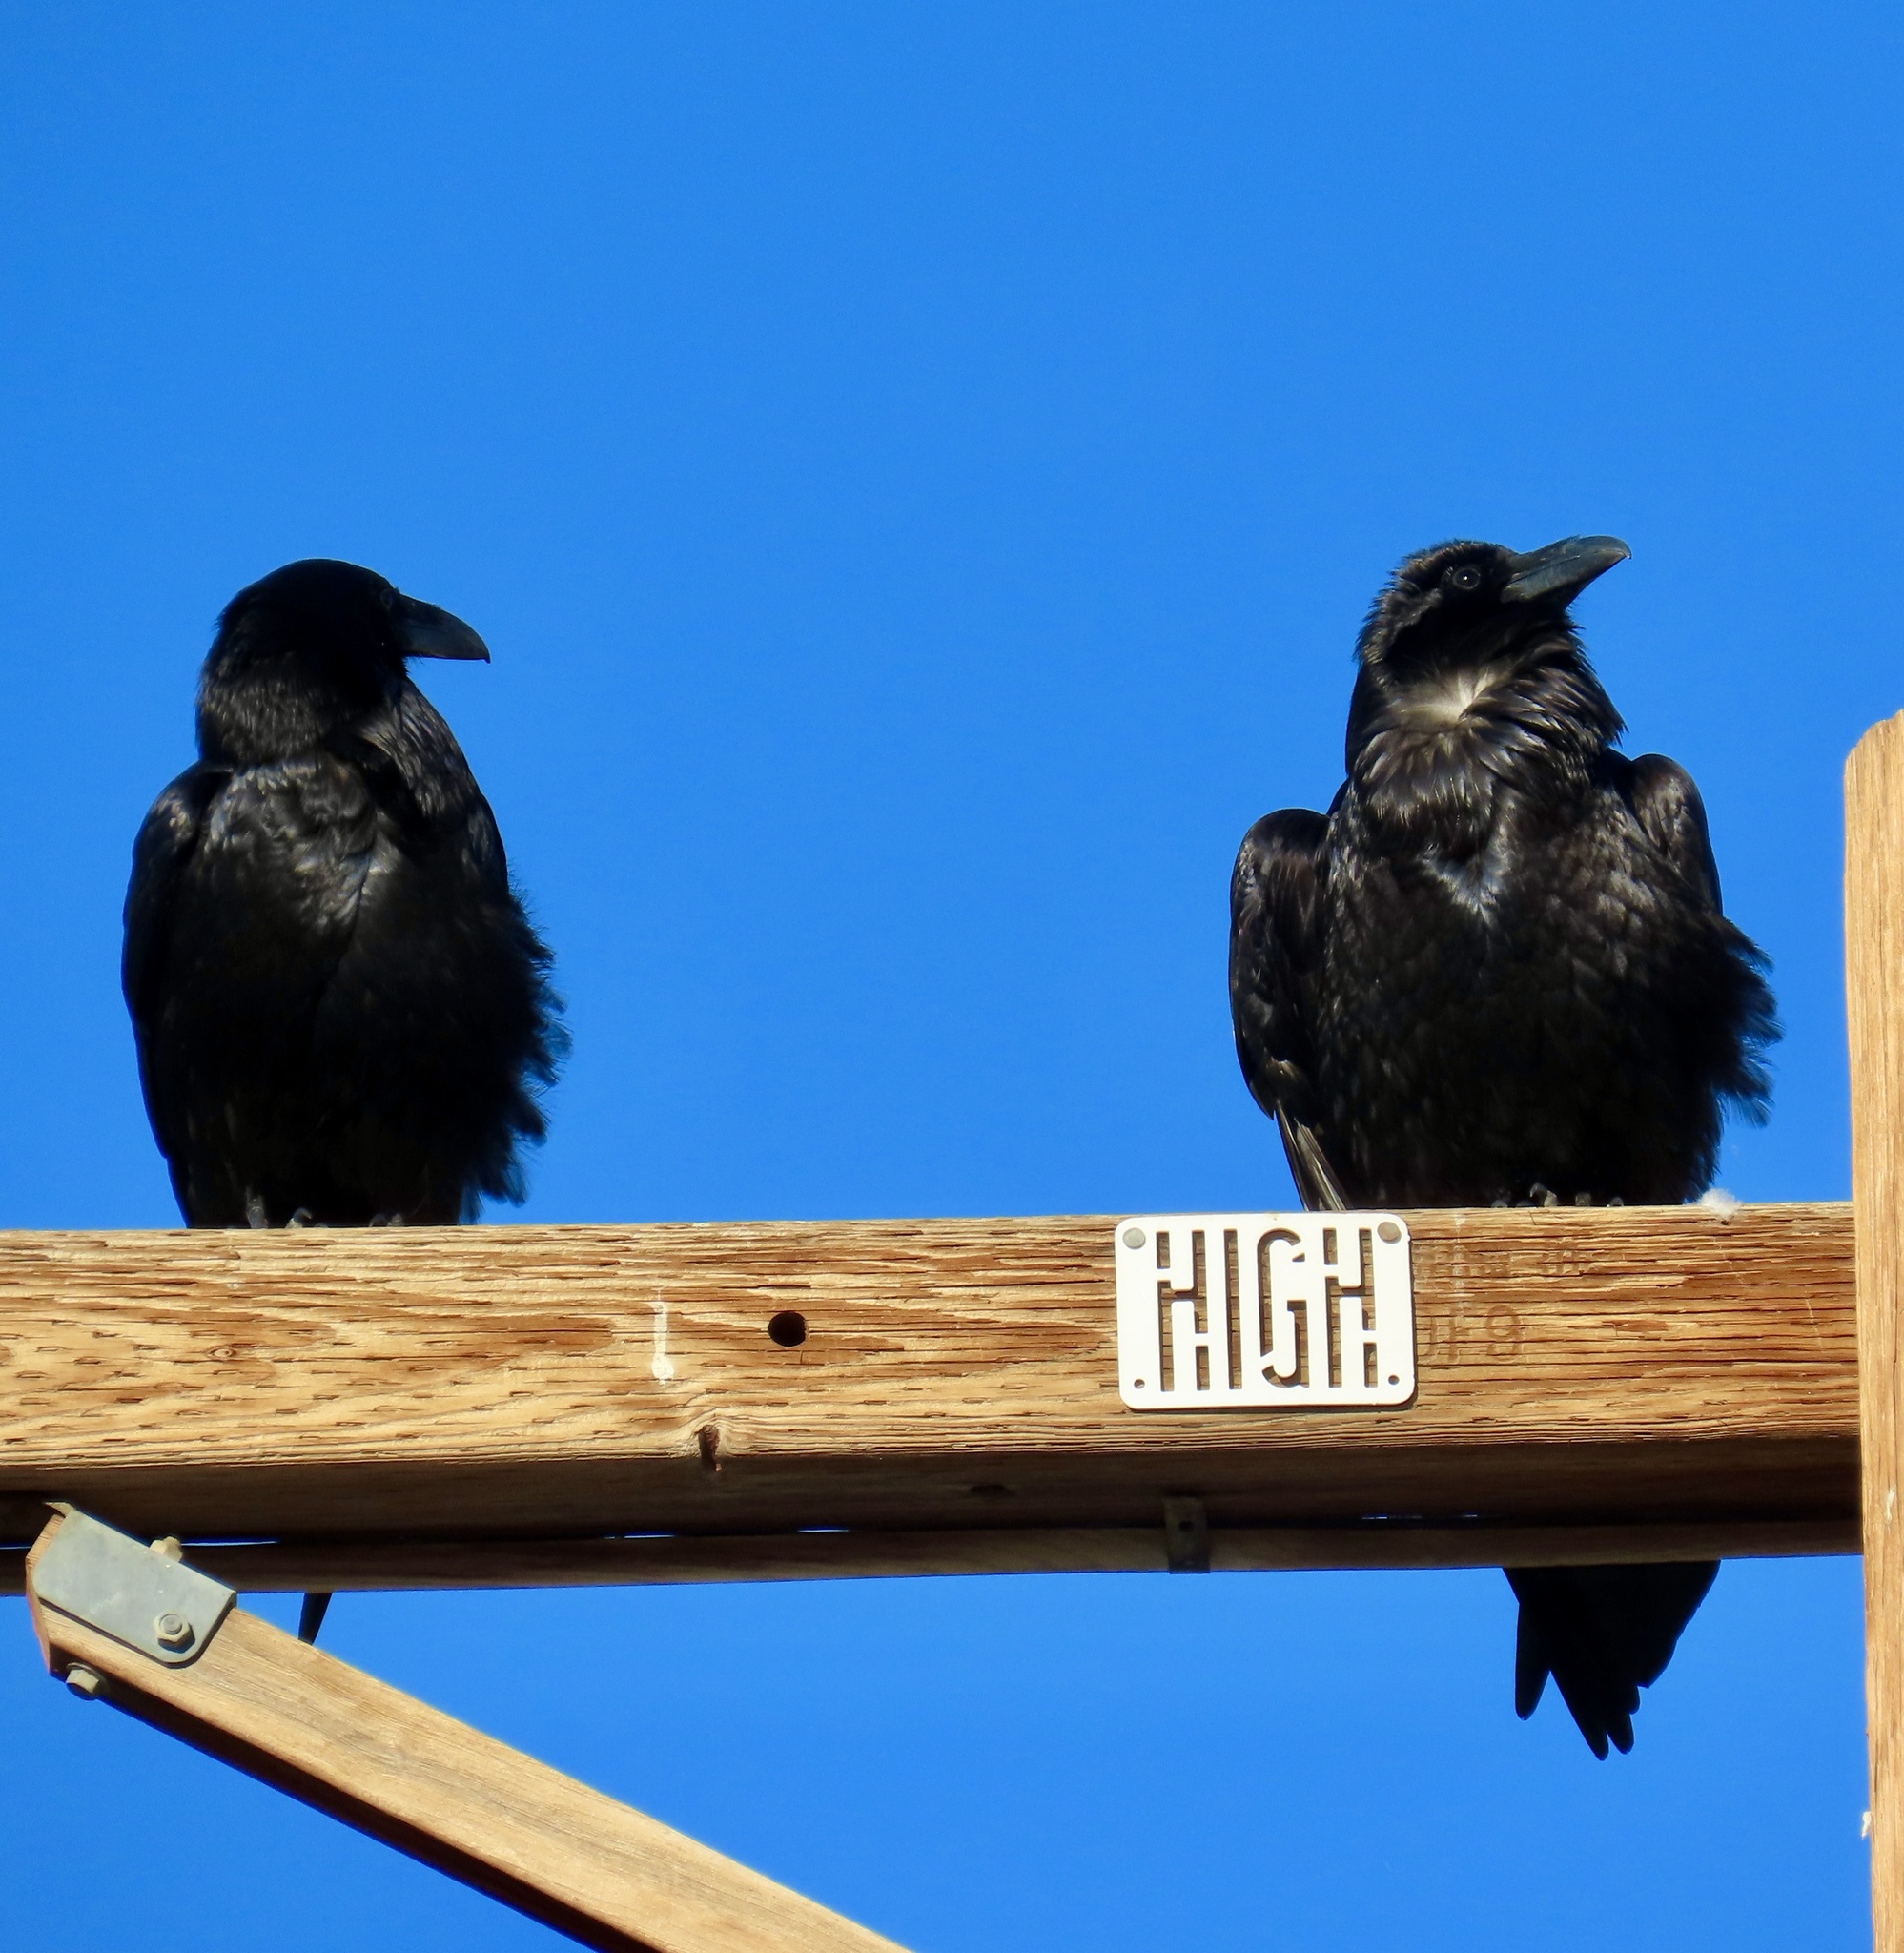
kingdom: Animalia
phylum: Chordata
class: Aves
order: Passeriformes
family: Corvidae
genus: Corvus
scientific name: Corvus corax
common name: Common raven
